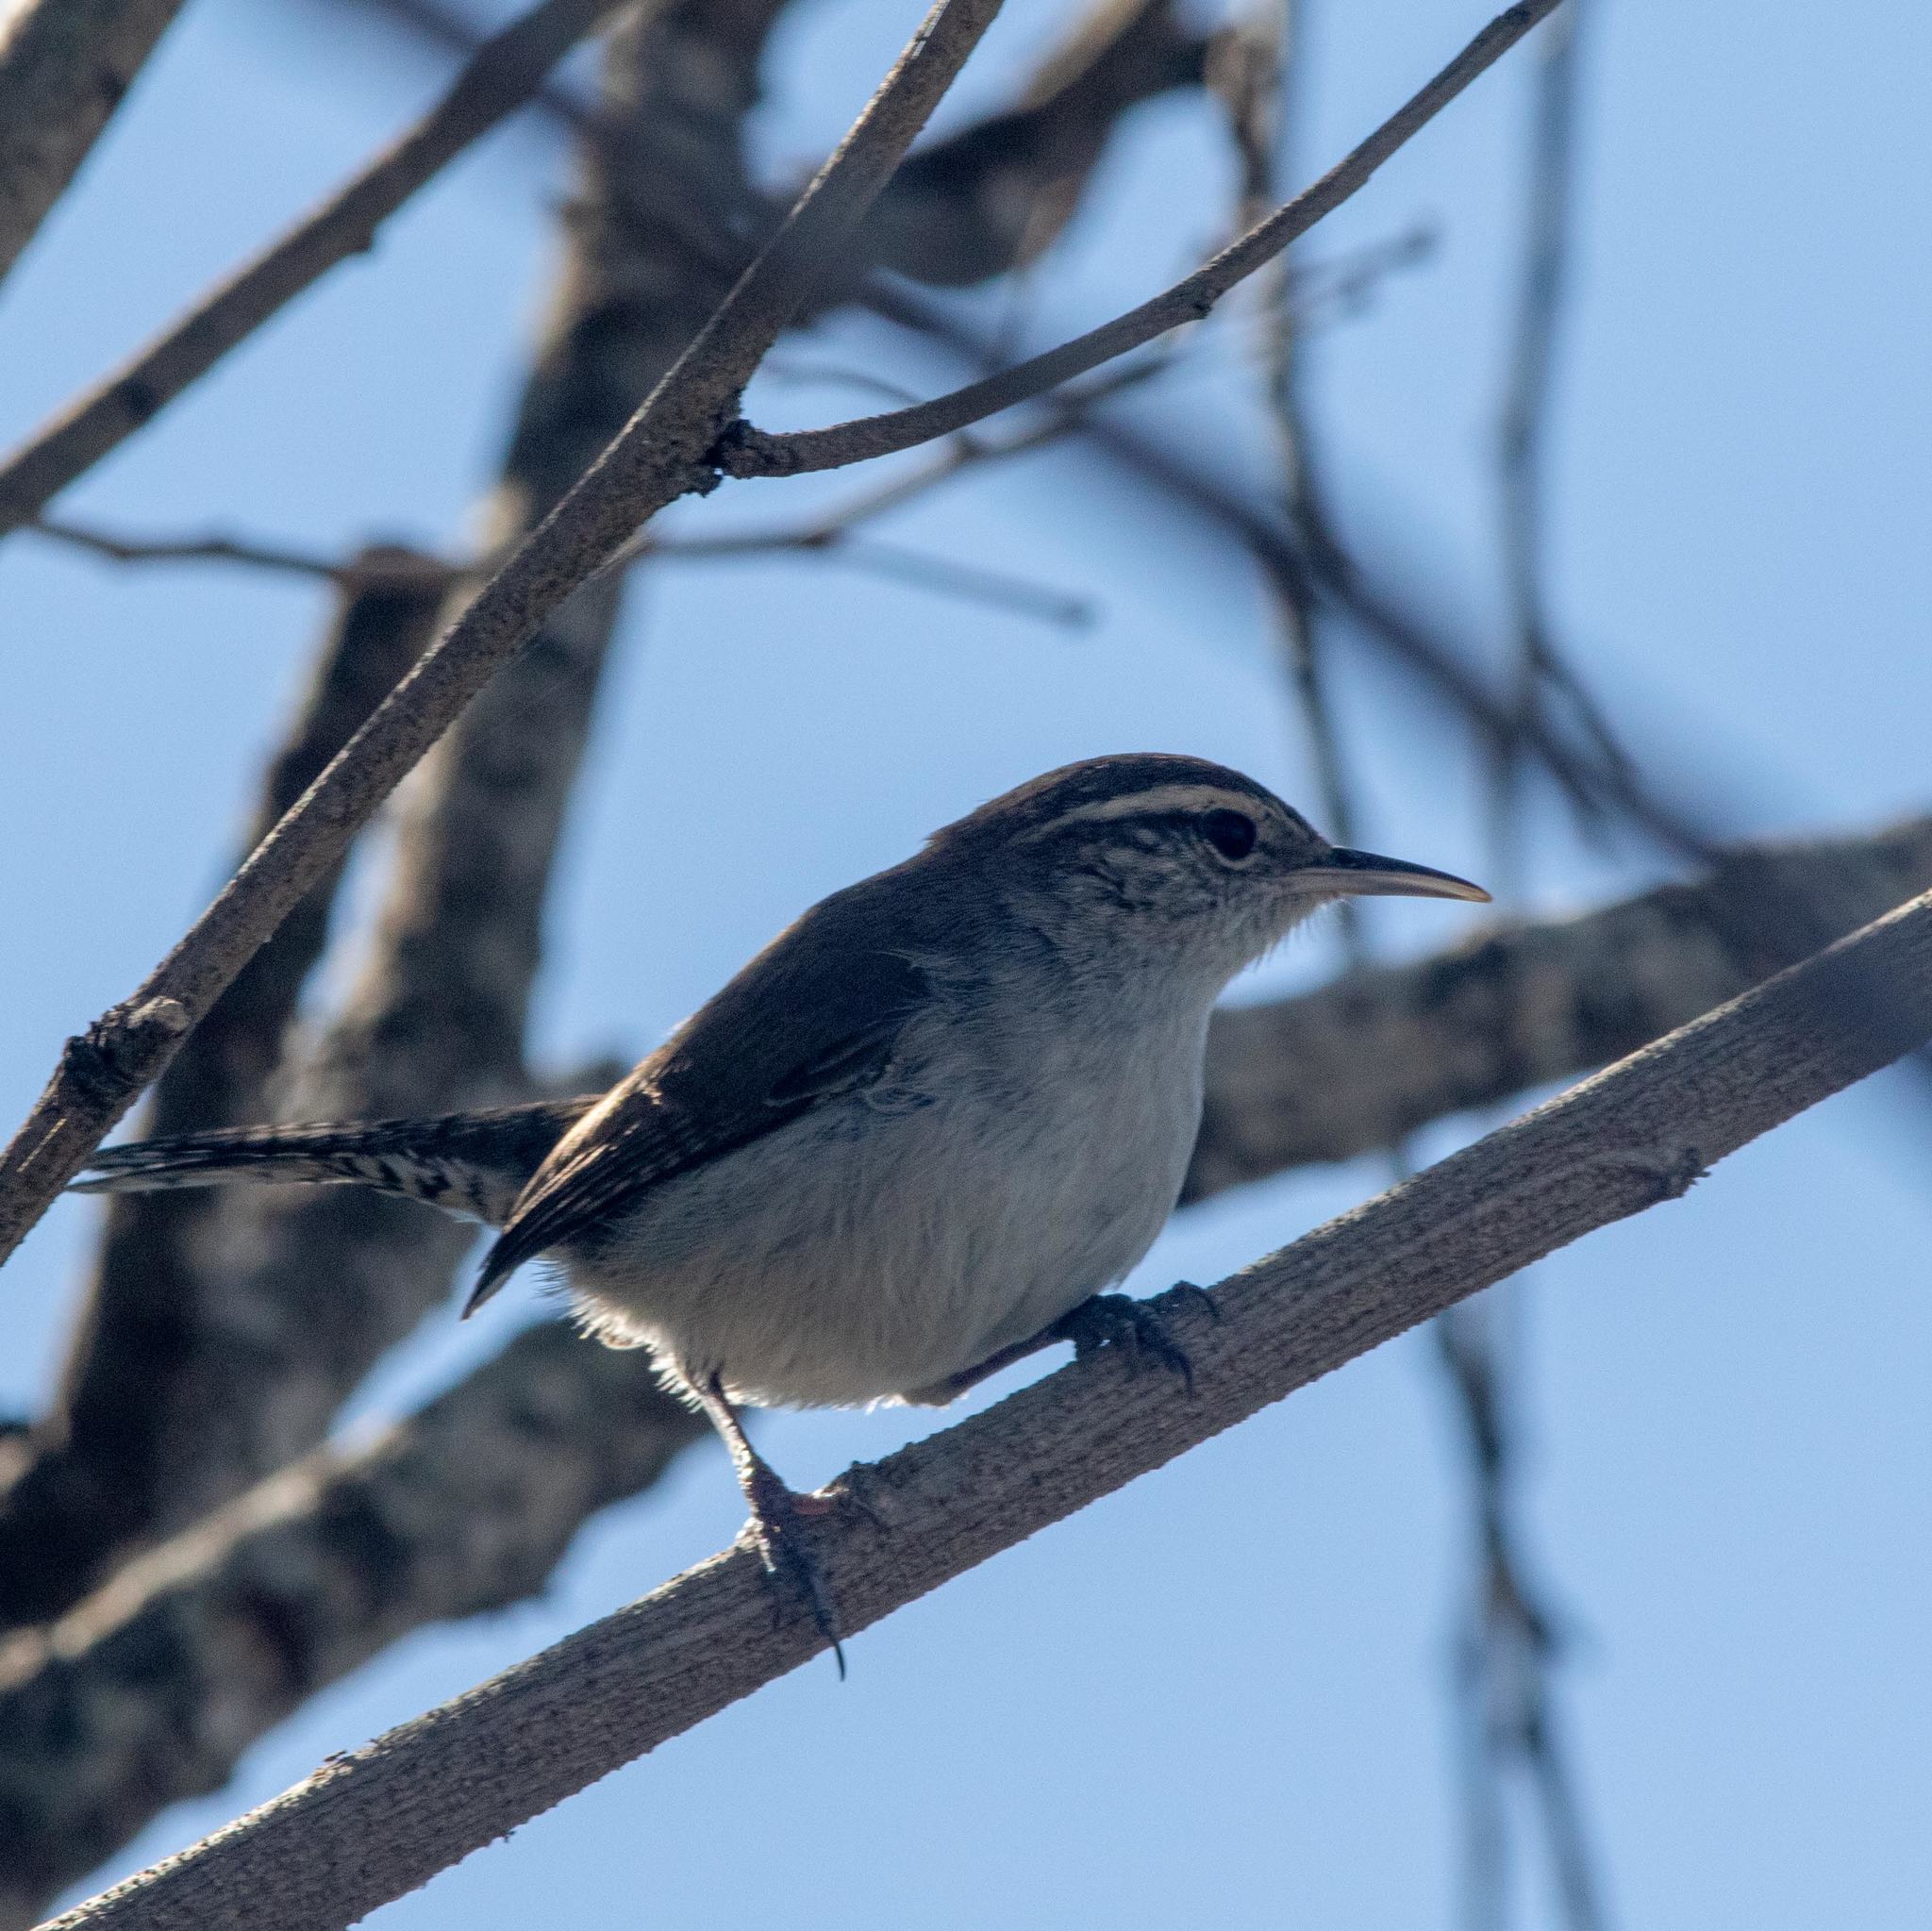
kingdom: Animalia
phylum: Chordata
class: Aves
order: Passeriformes
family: Troglodytidae
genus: Thryomanes
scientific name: Thryomanes bewickii
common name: Bewick's wren
